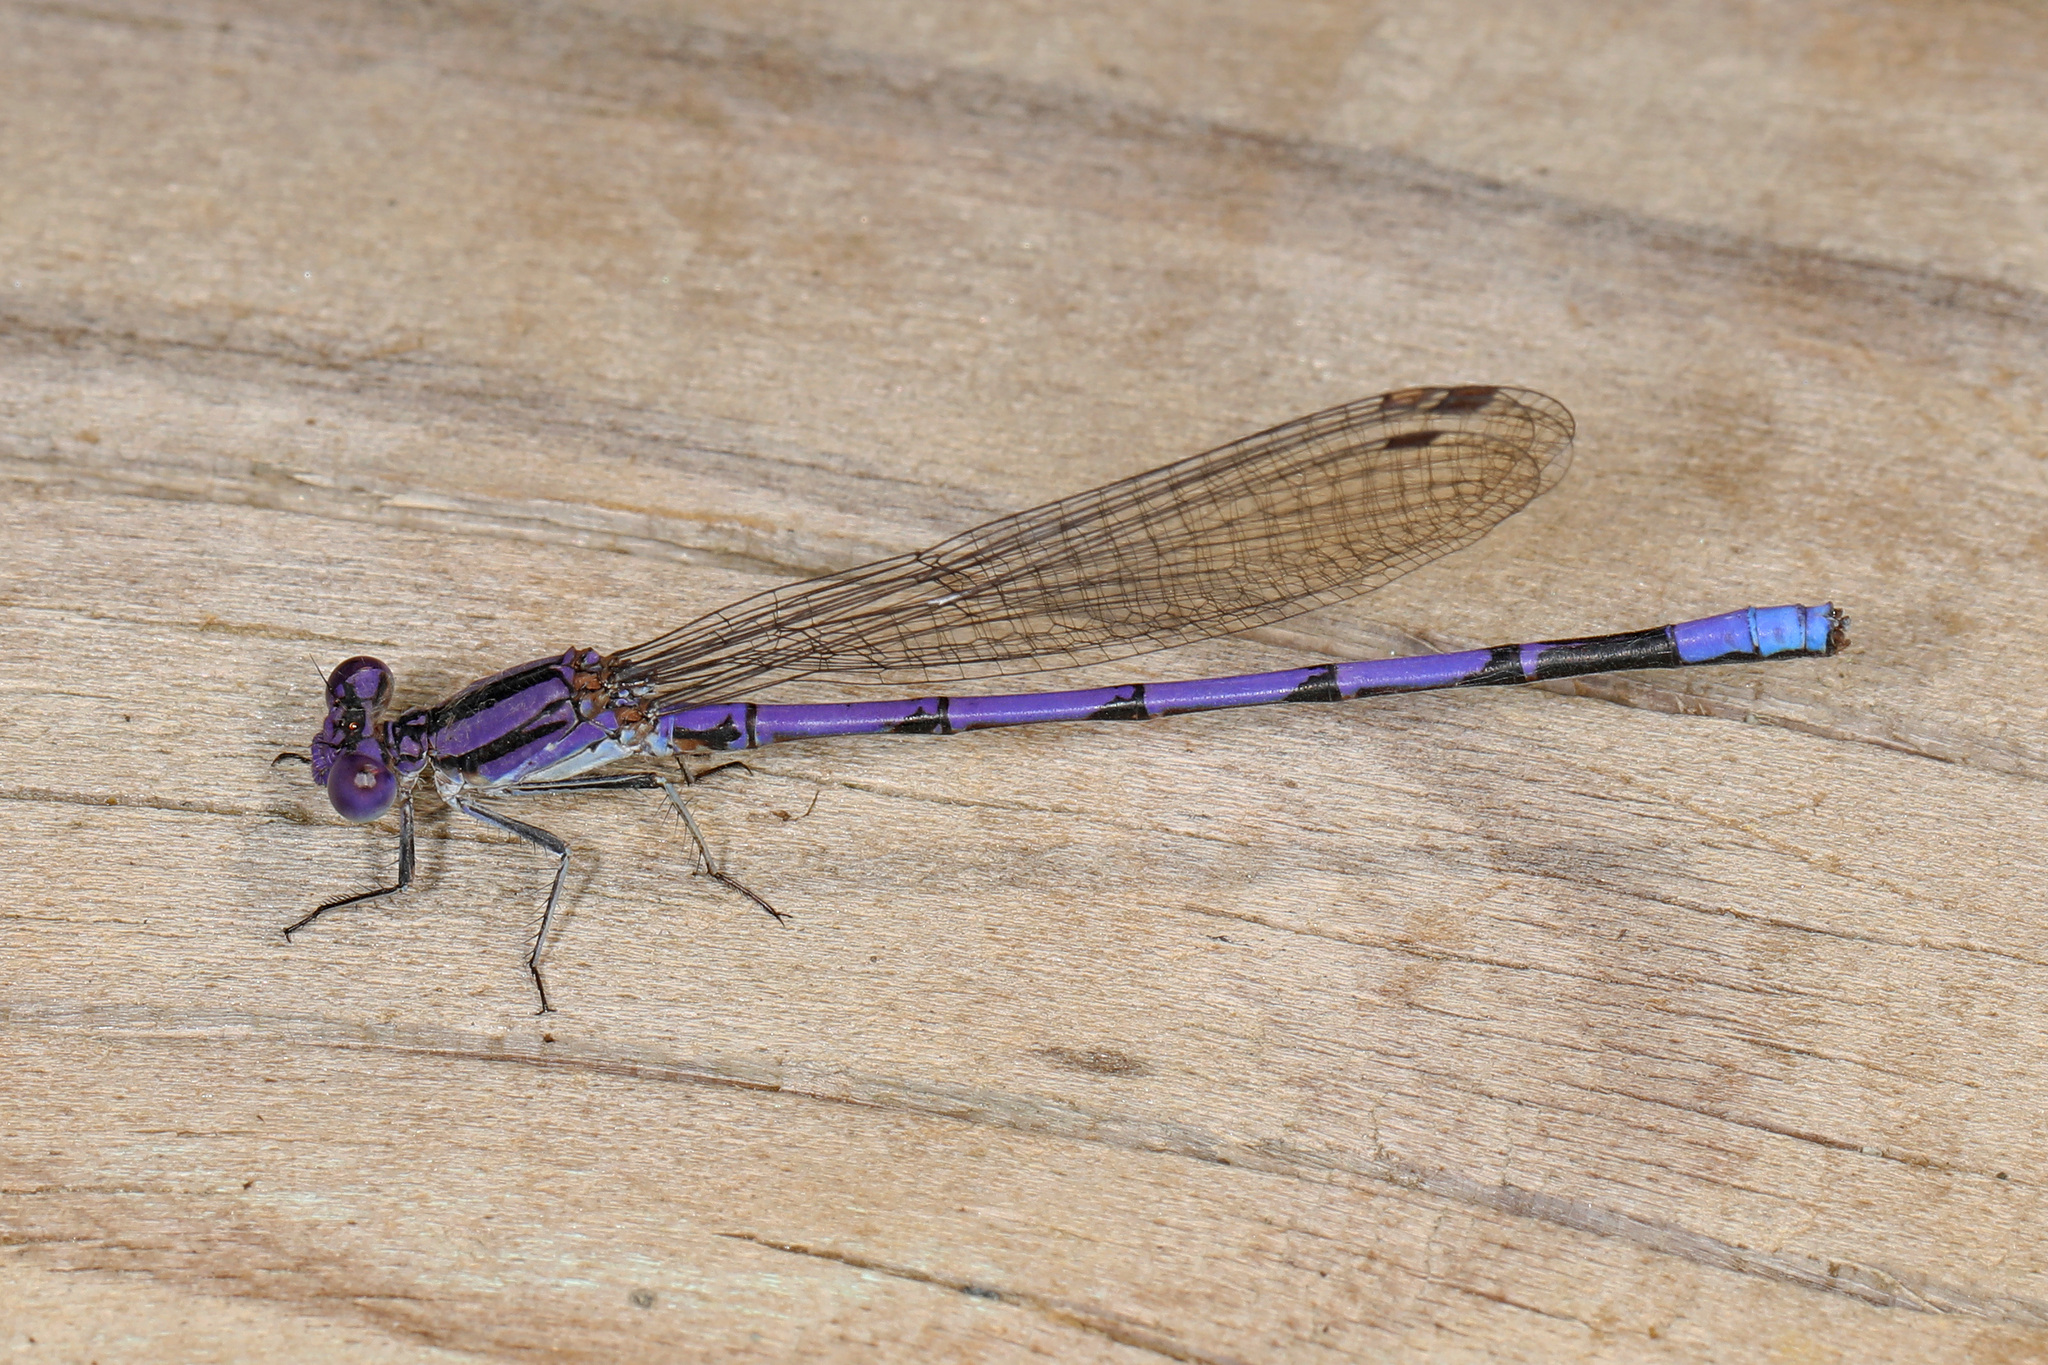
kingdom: Animalia
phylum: Arthropoda
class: Insecta
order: Odonata
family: Coenagrionidae
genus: Argia
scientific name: Argia fumipennis
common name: Variable dancer
